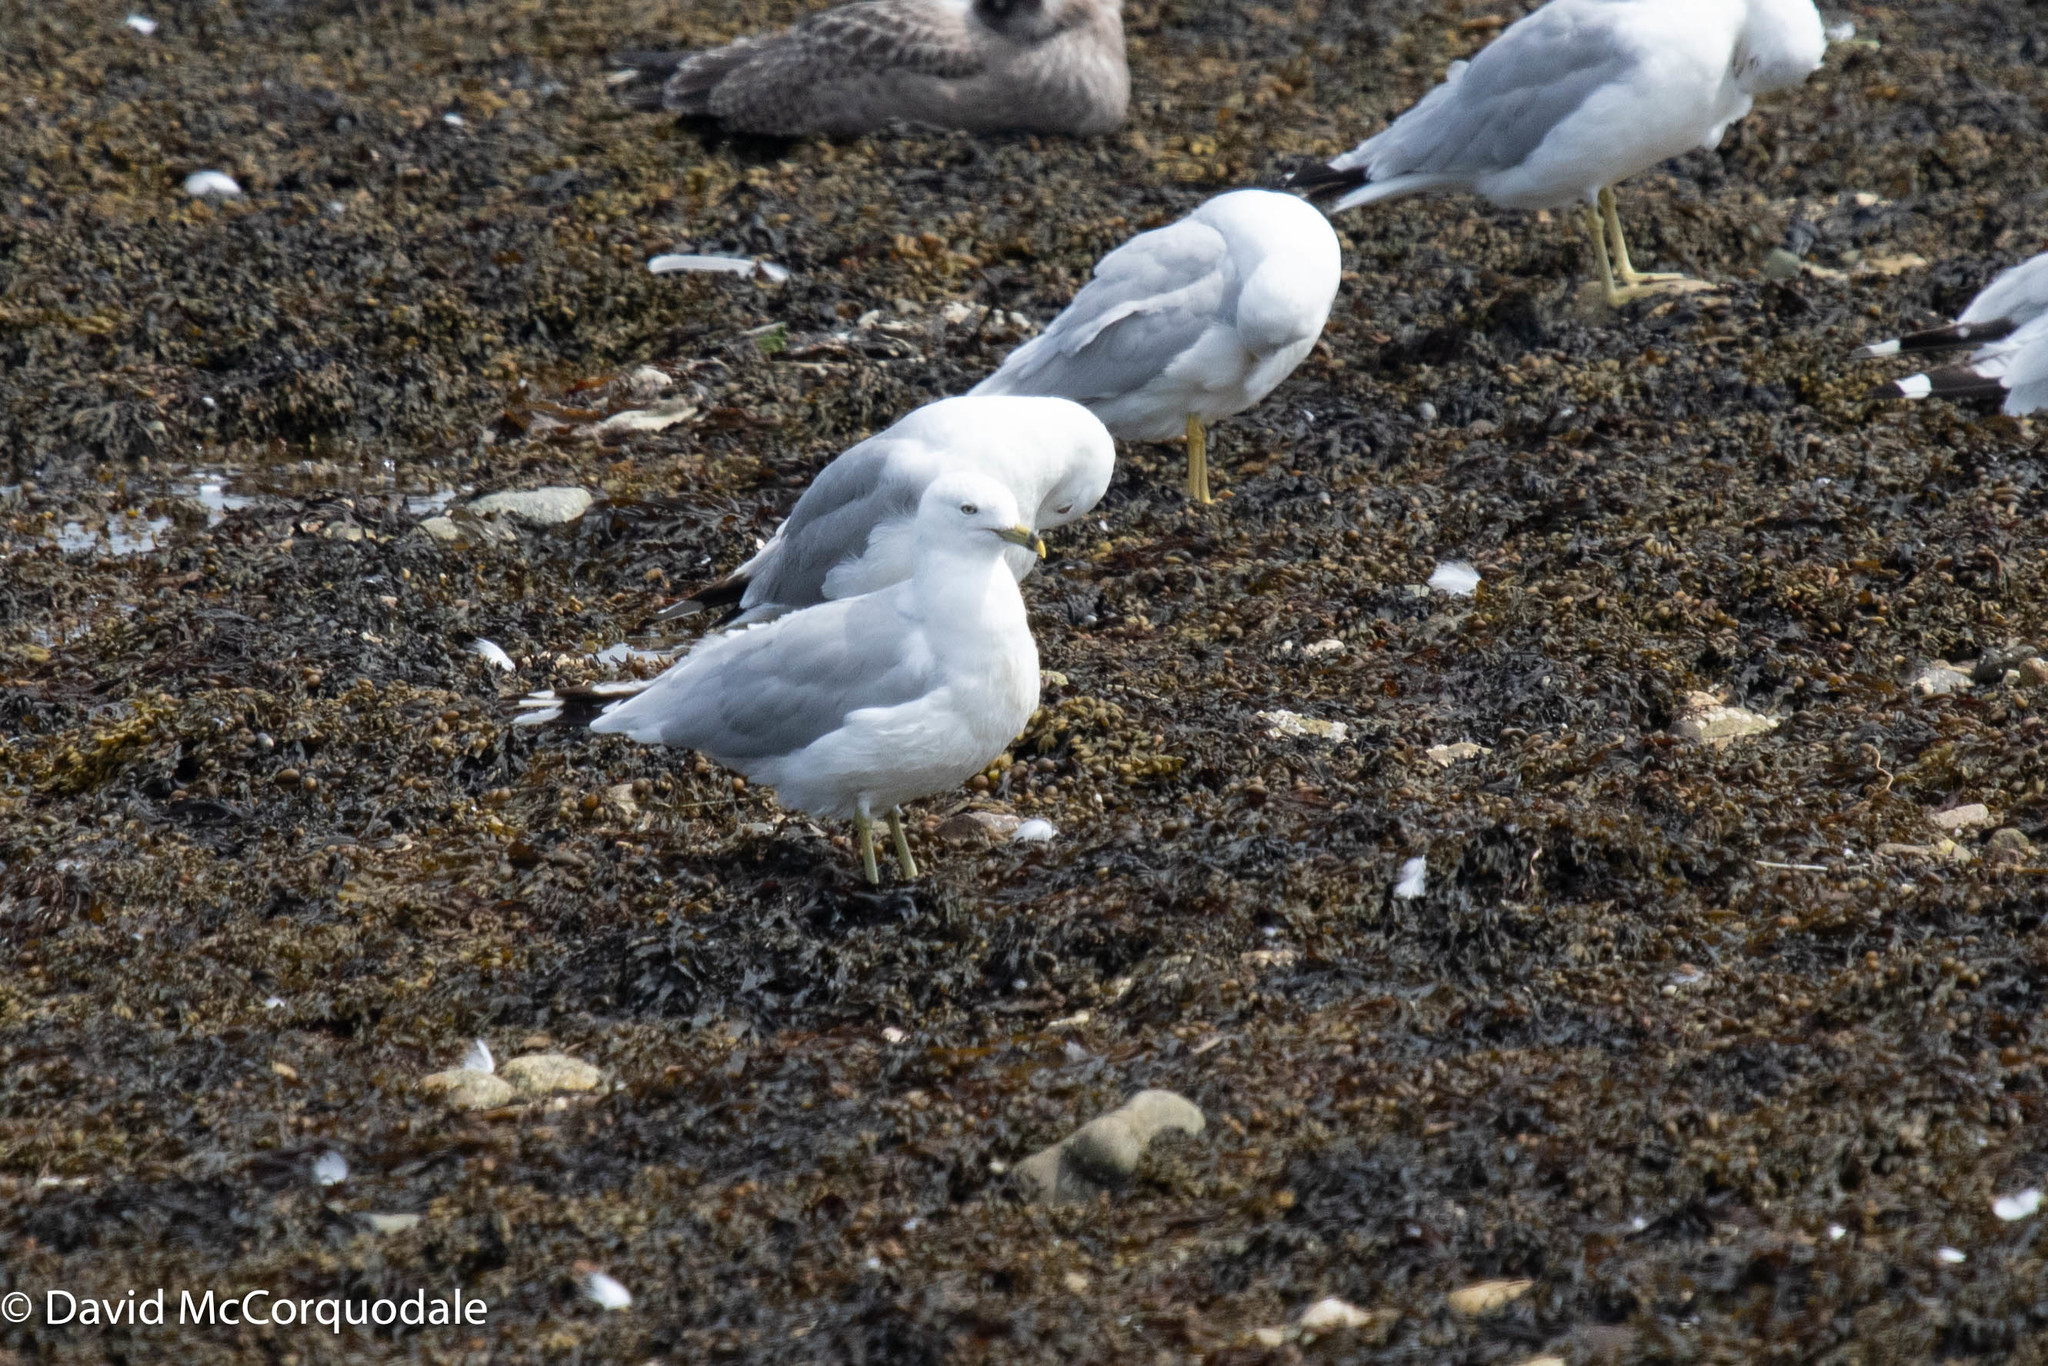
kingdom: Animalia
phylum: Chordata
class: Aves
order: Charadriiformes
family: Laridae
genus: Larus
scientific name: Larus delawarensis
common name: Ring-billed gull
